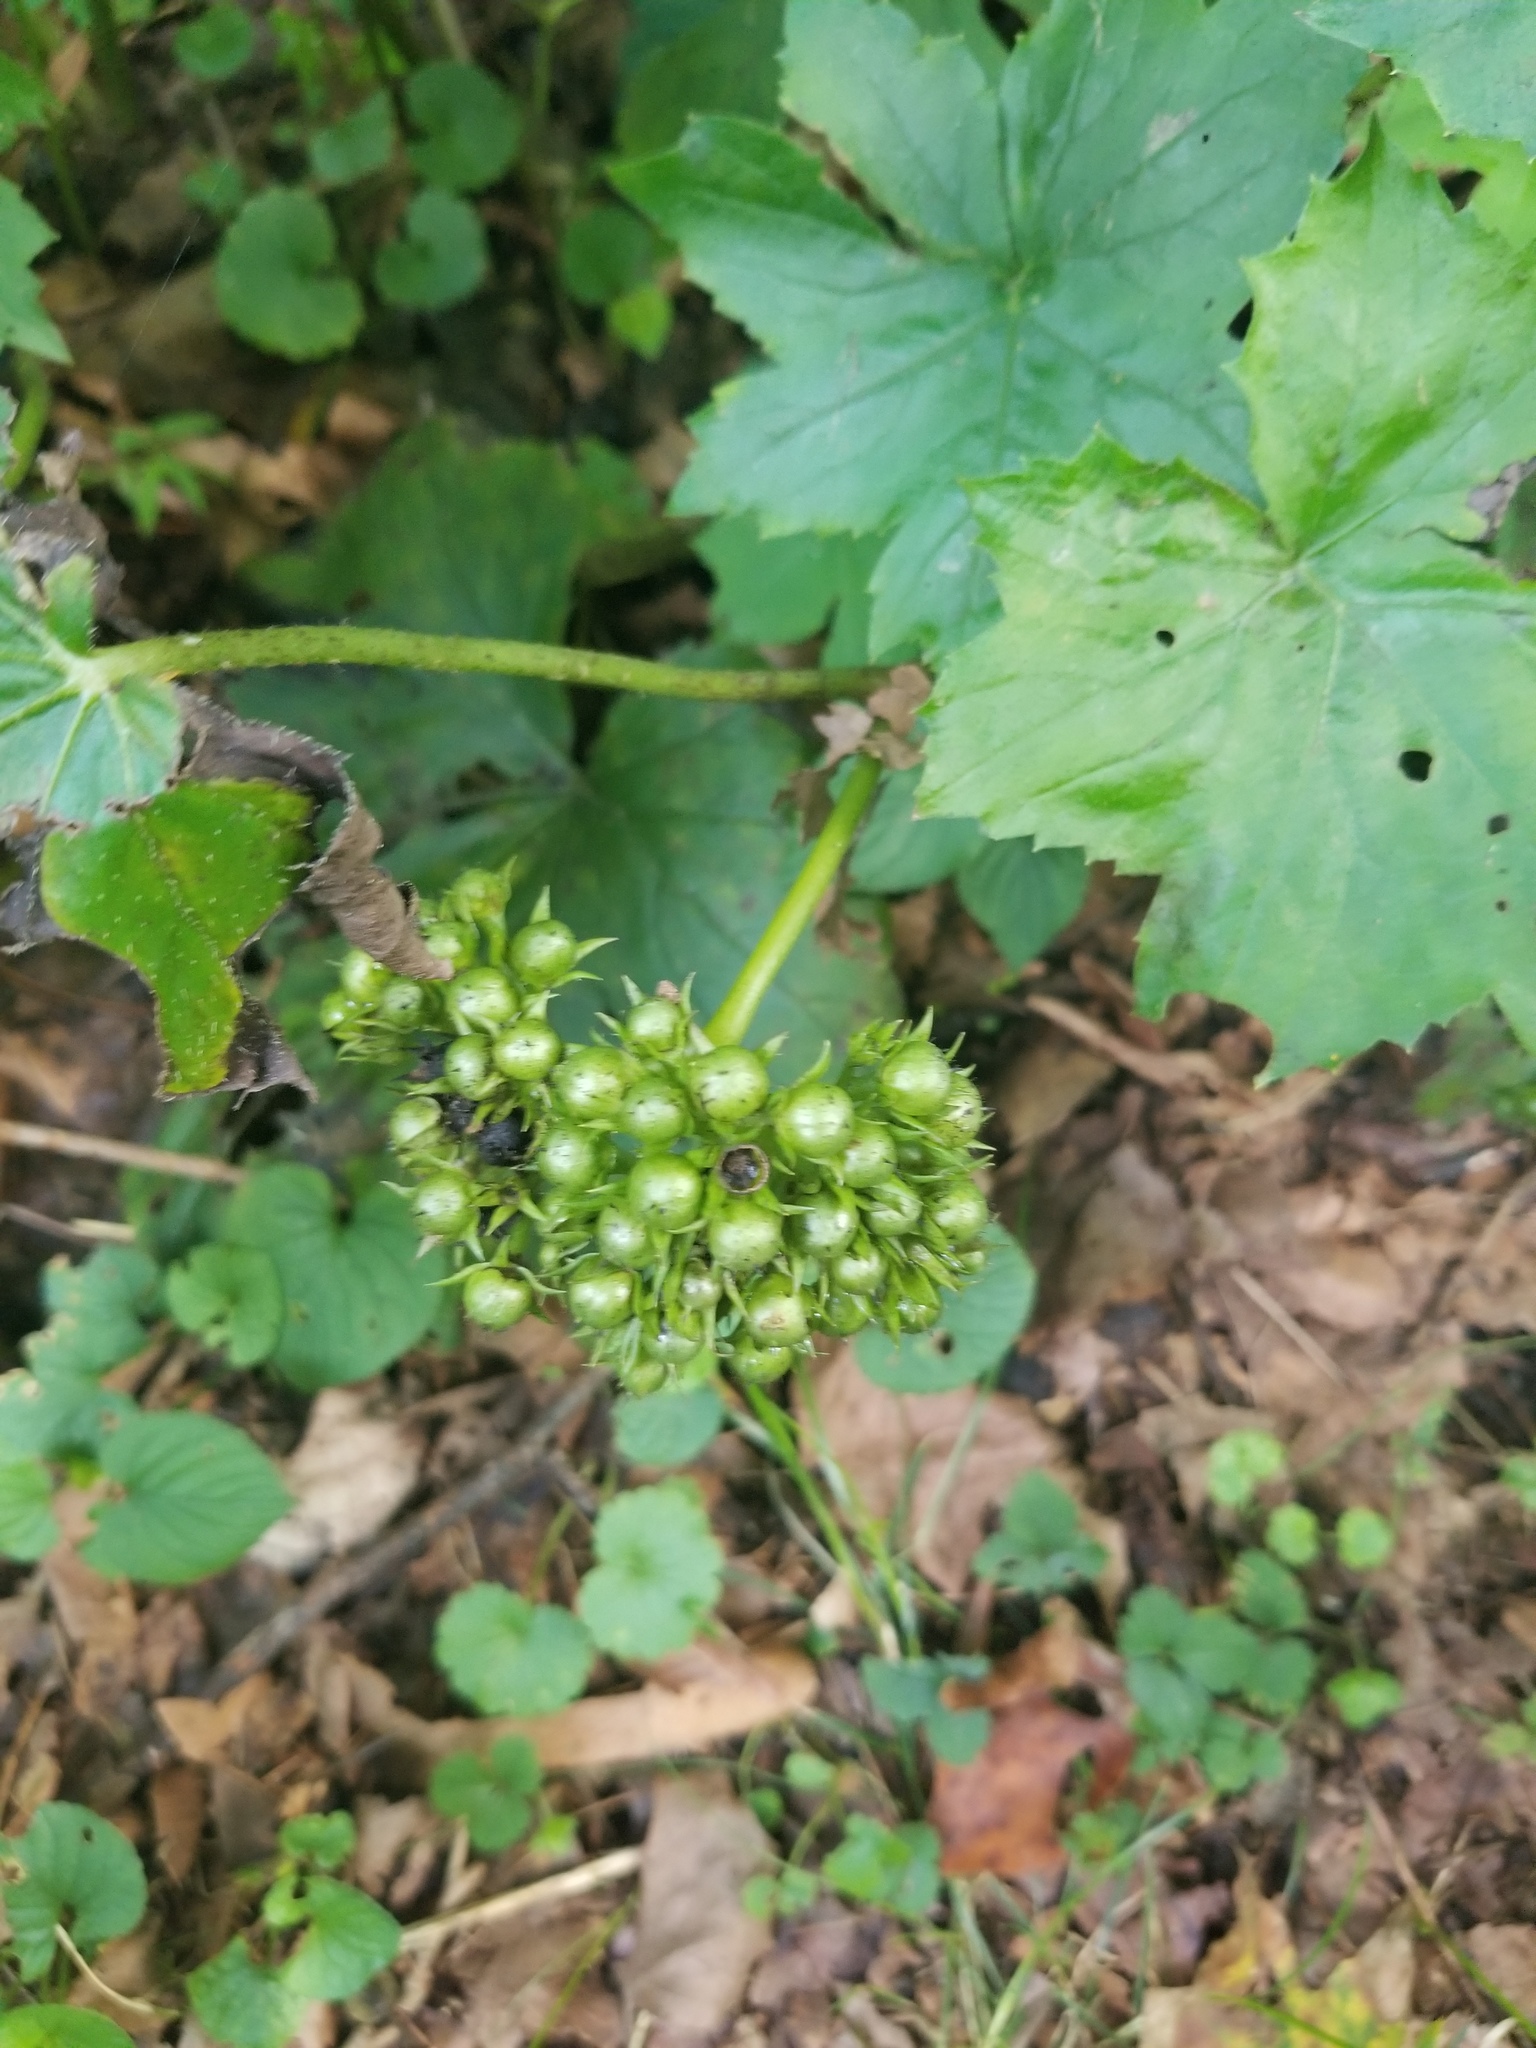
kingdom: Plantae
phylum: Tracheophyta
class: Magnoliopsida
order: Boraginales
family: Hydrophyllaceae
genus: Hydrophyllum
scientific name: Hydrophyllum canadense
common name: Canada waterleaf
